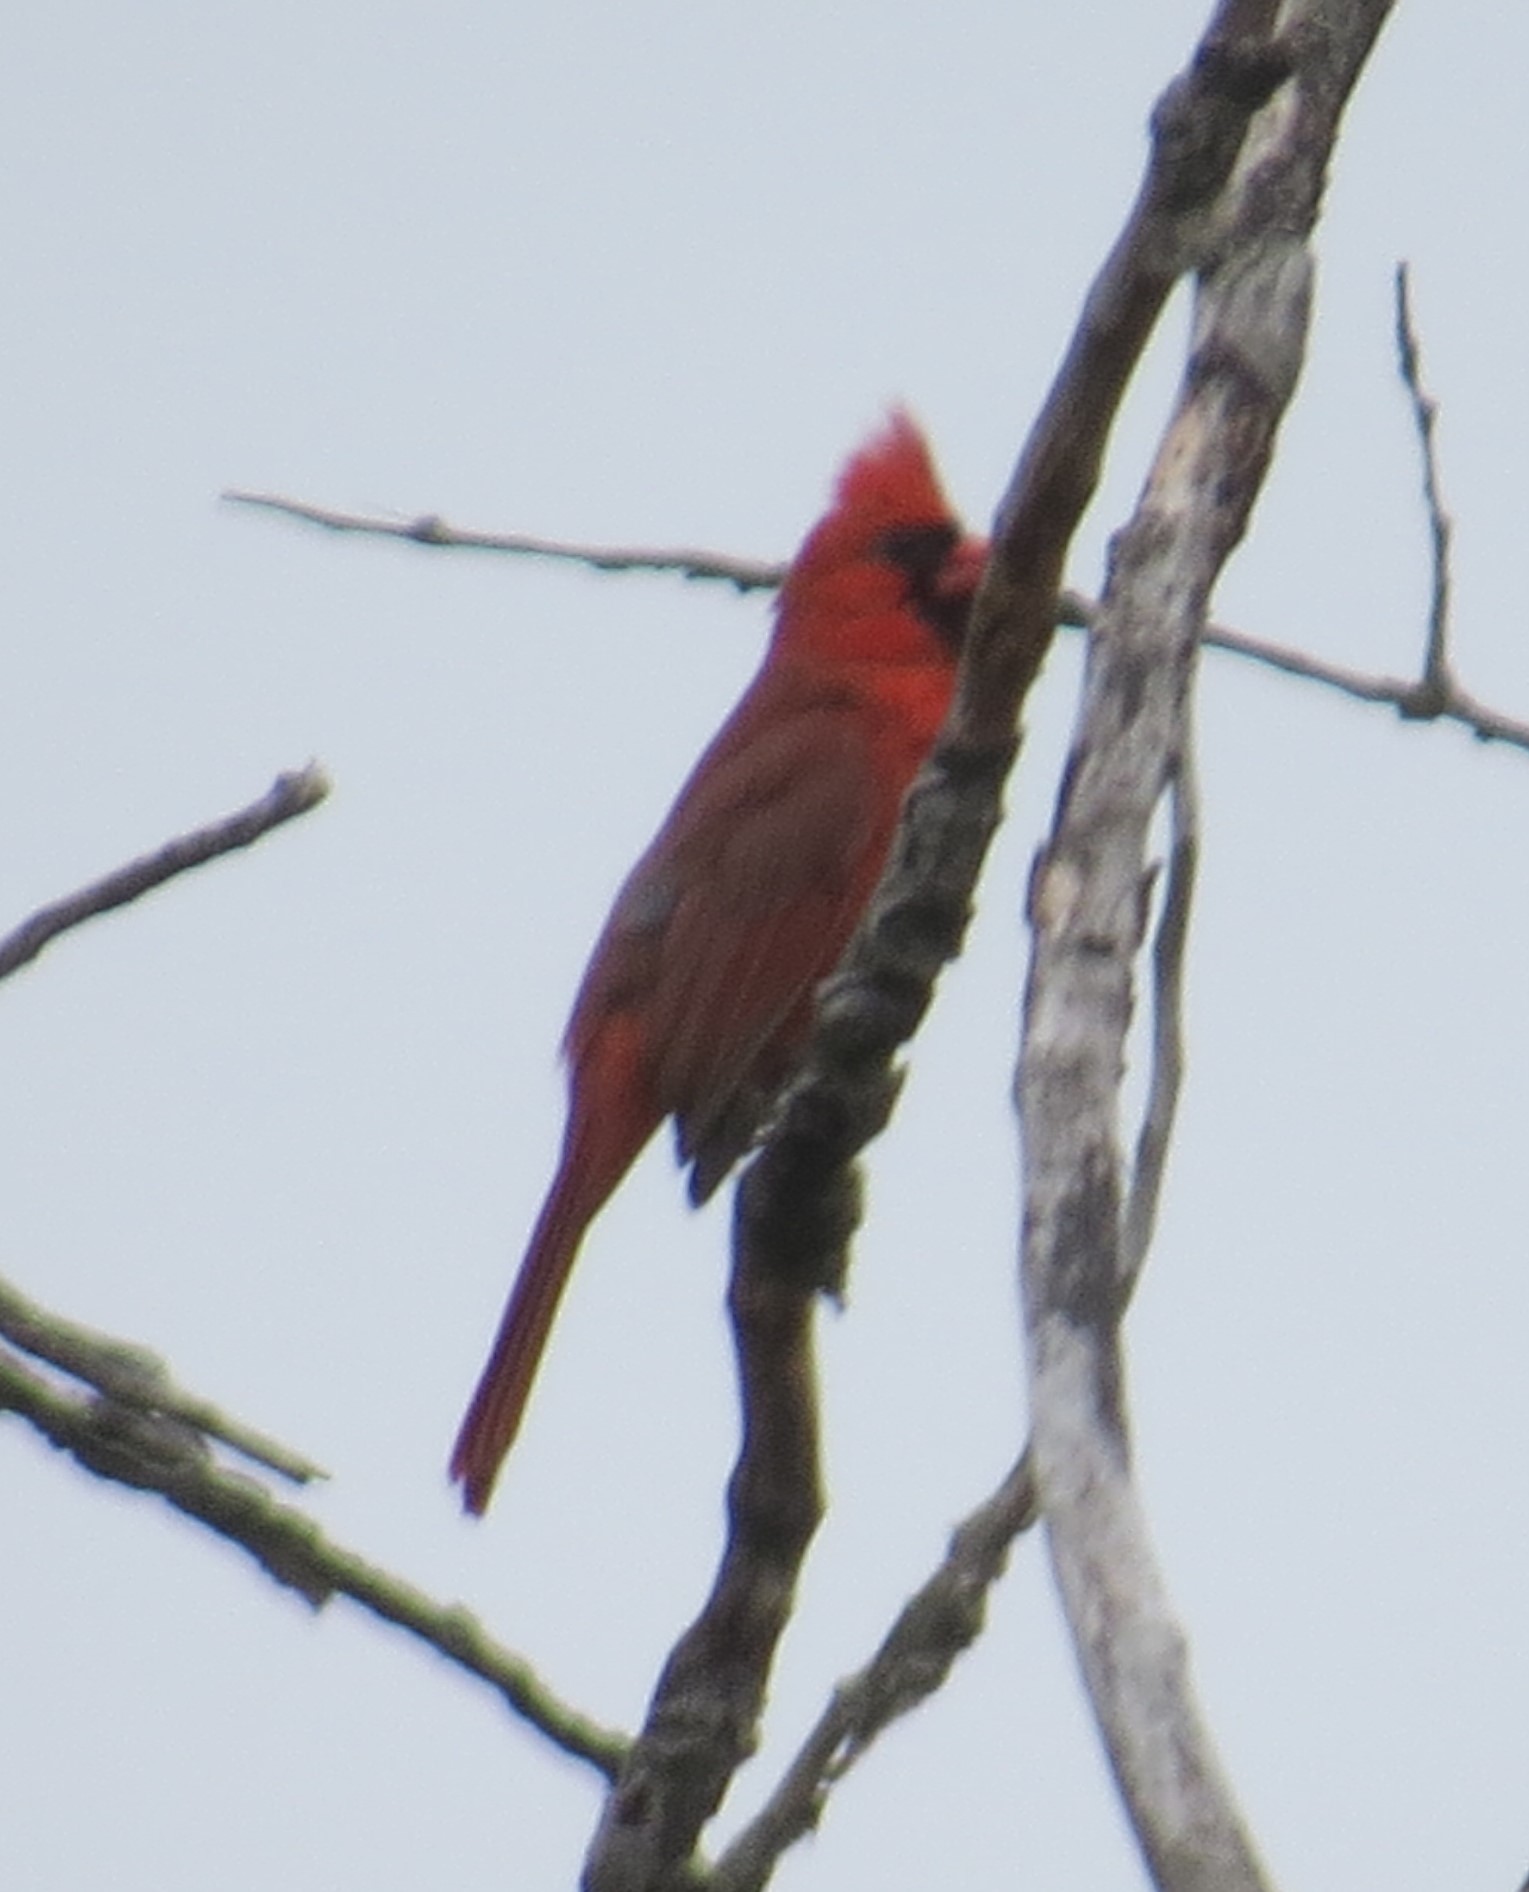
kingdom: Animalia
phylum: Chordata
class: Aves
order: Passeriformes
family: Cardinalidae
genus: Cardinalis
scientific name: Cardinalis cardinalis
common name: Northern cardinal
